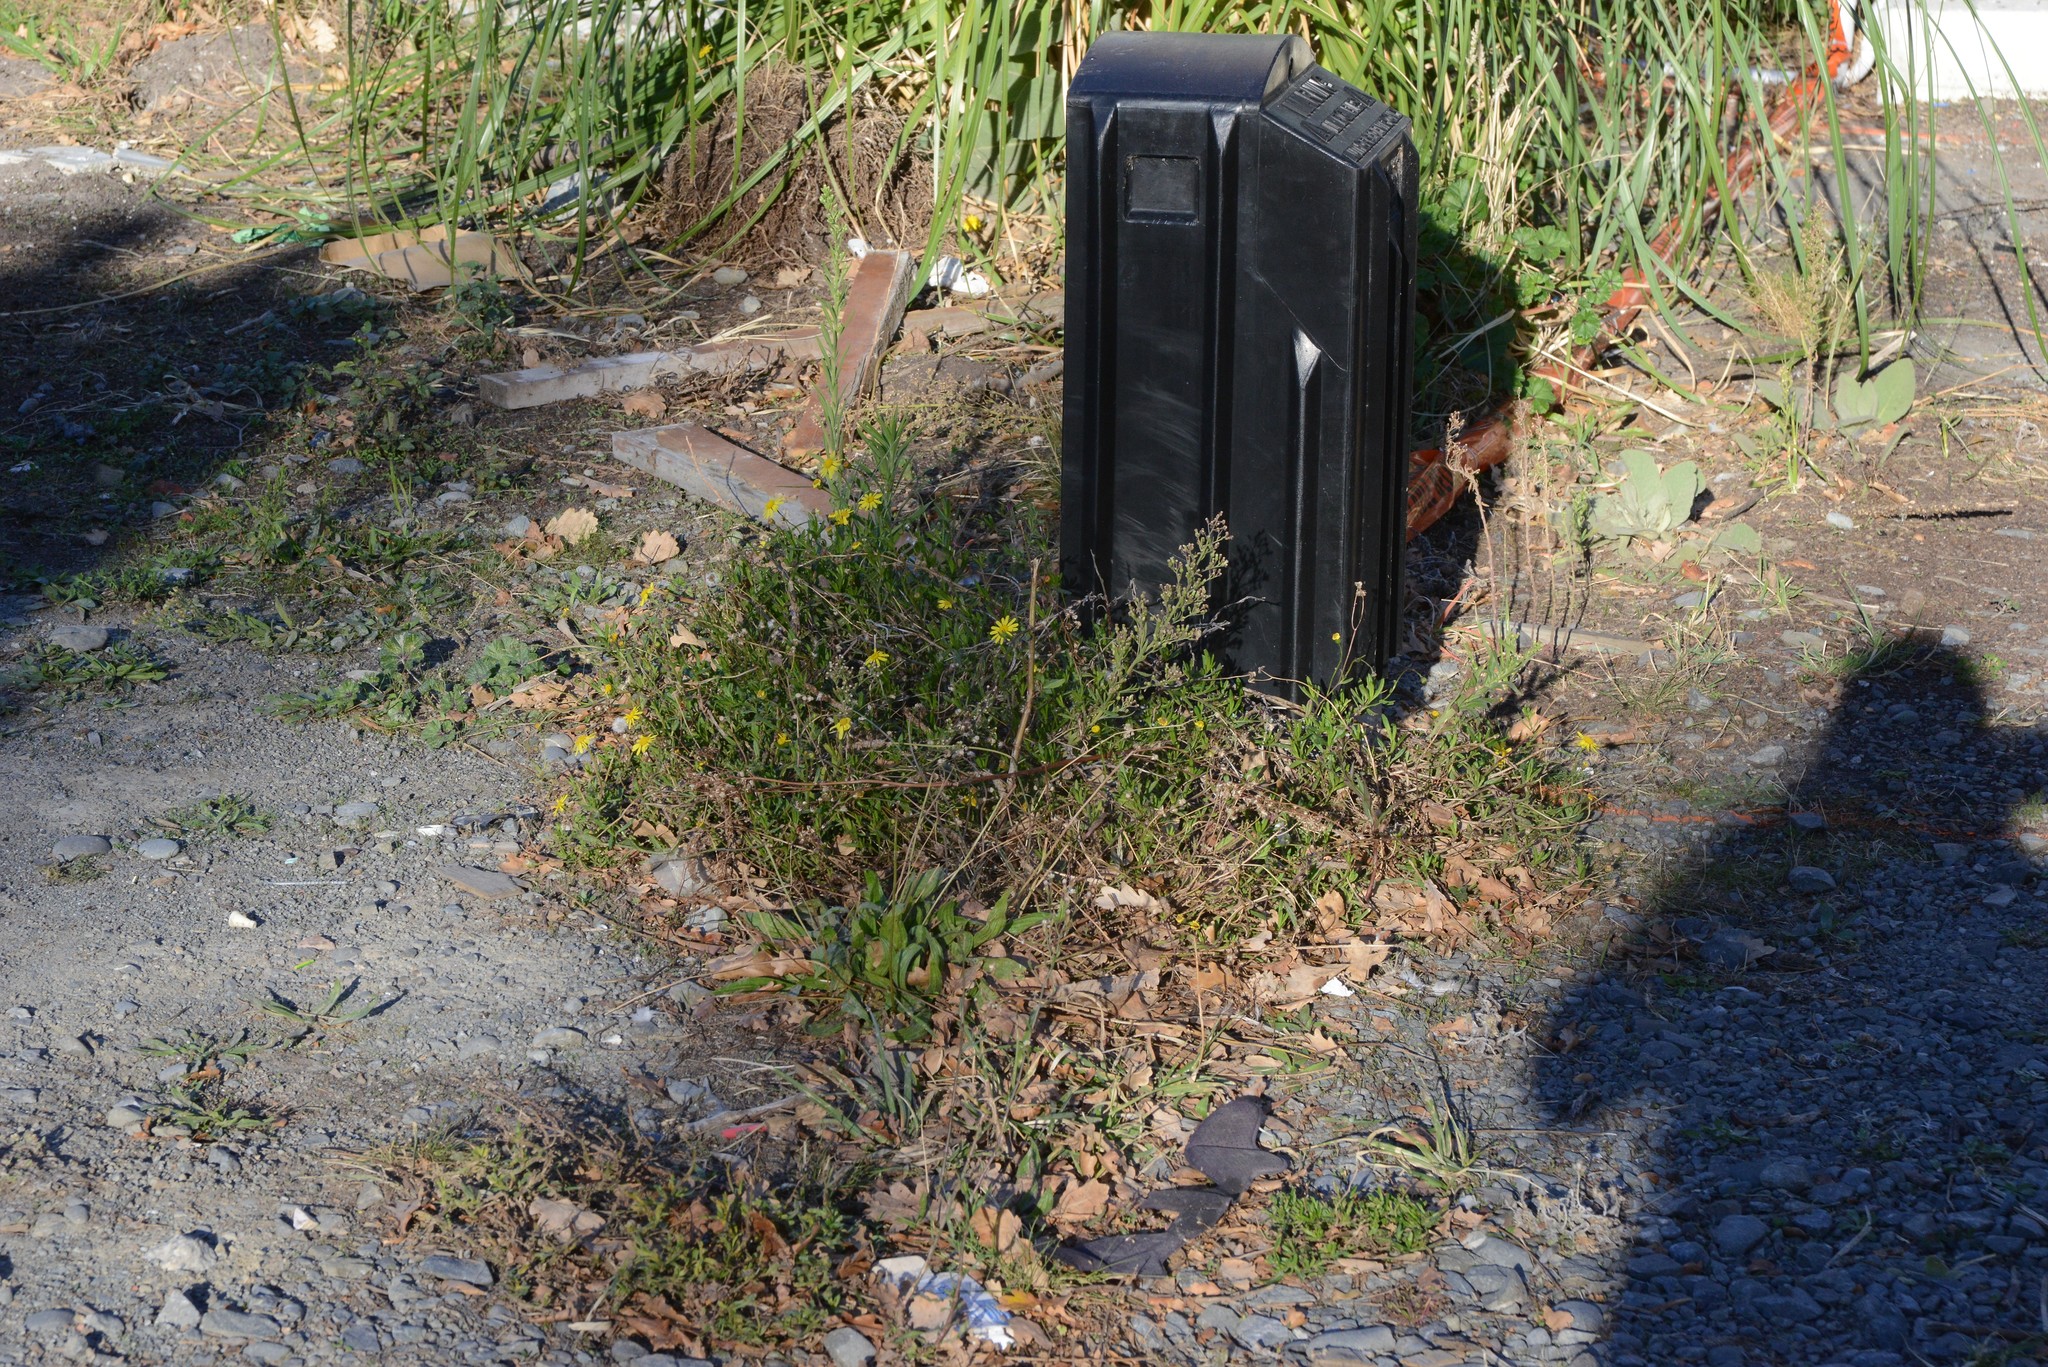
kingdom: Plantae
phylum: Tracheophyta
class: Magnoliopsida
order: Asterales
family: Asteraceae
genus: Senecio
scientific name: Senecio skirrhodon
